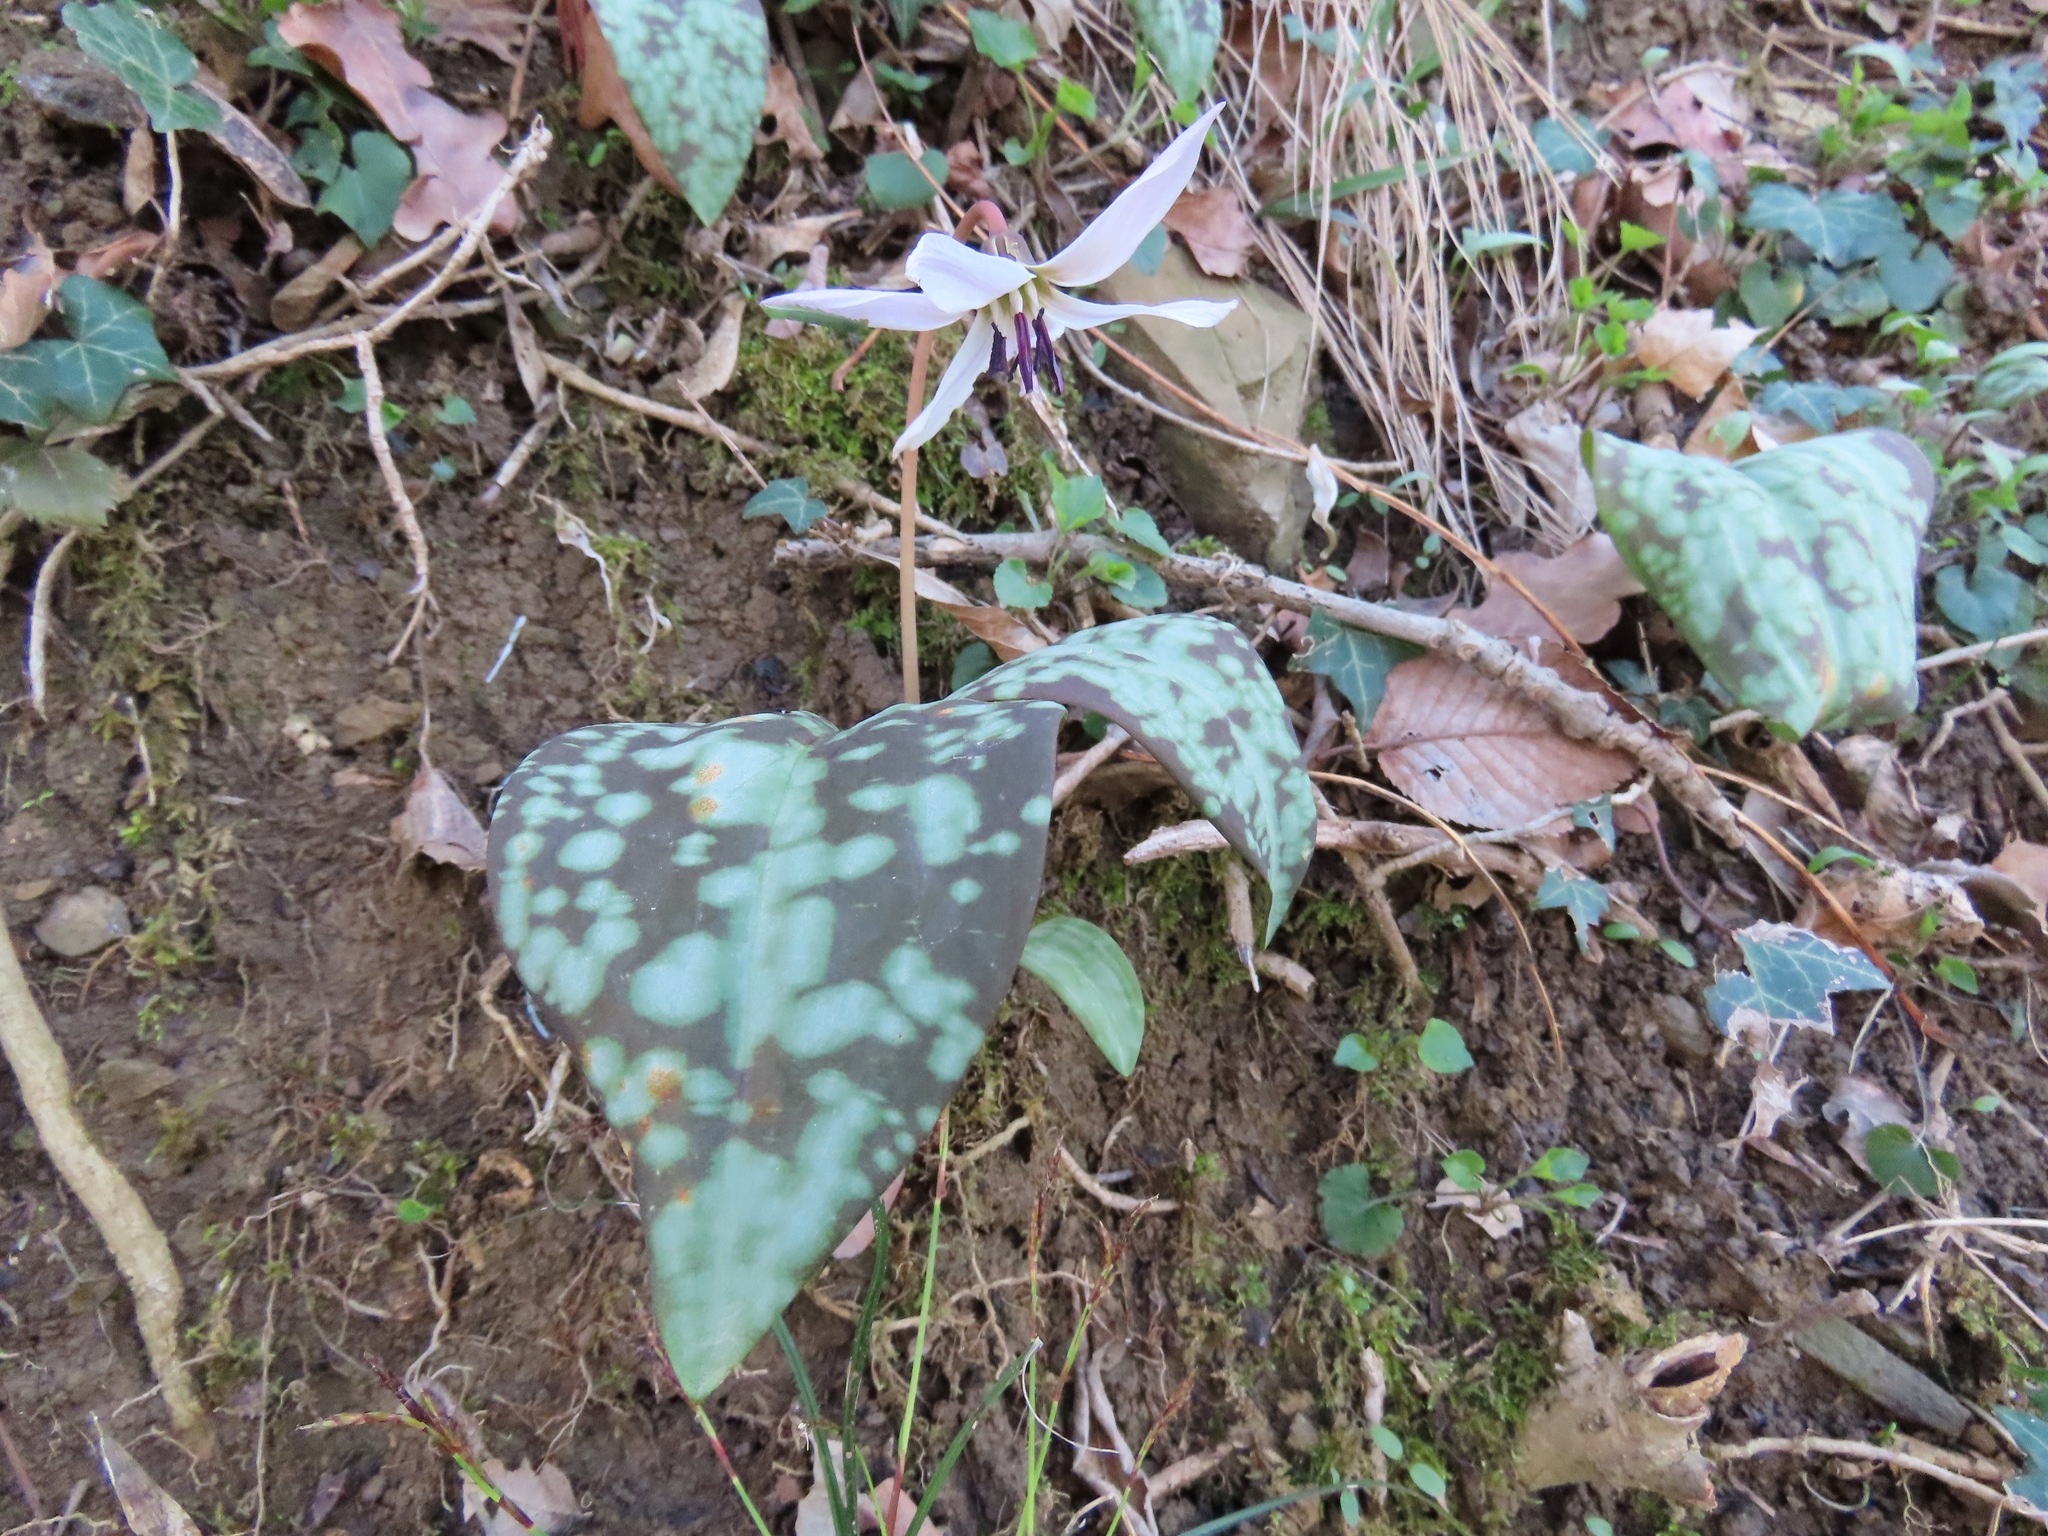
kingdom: Plantae
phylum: Tracheophyta
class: Liliopsida
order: Liliales
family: Liliaceae
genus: Erythronium
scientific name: Erythronium dens-canis
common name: Dog's-tooth-violet
